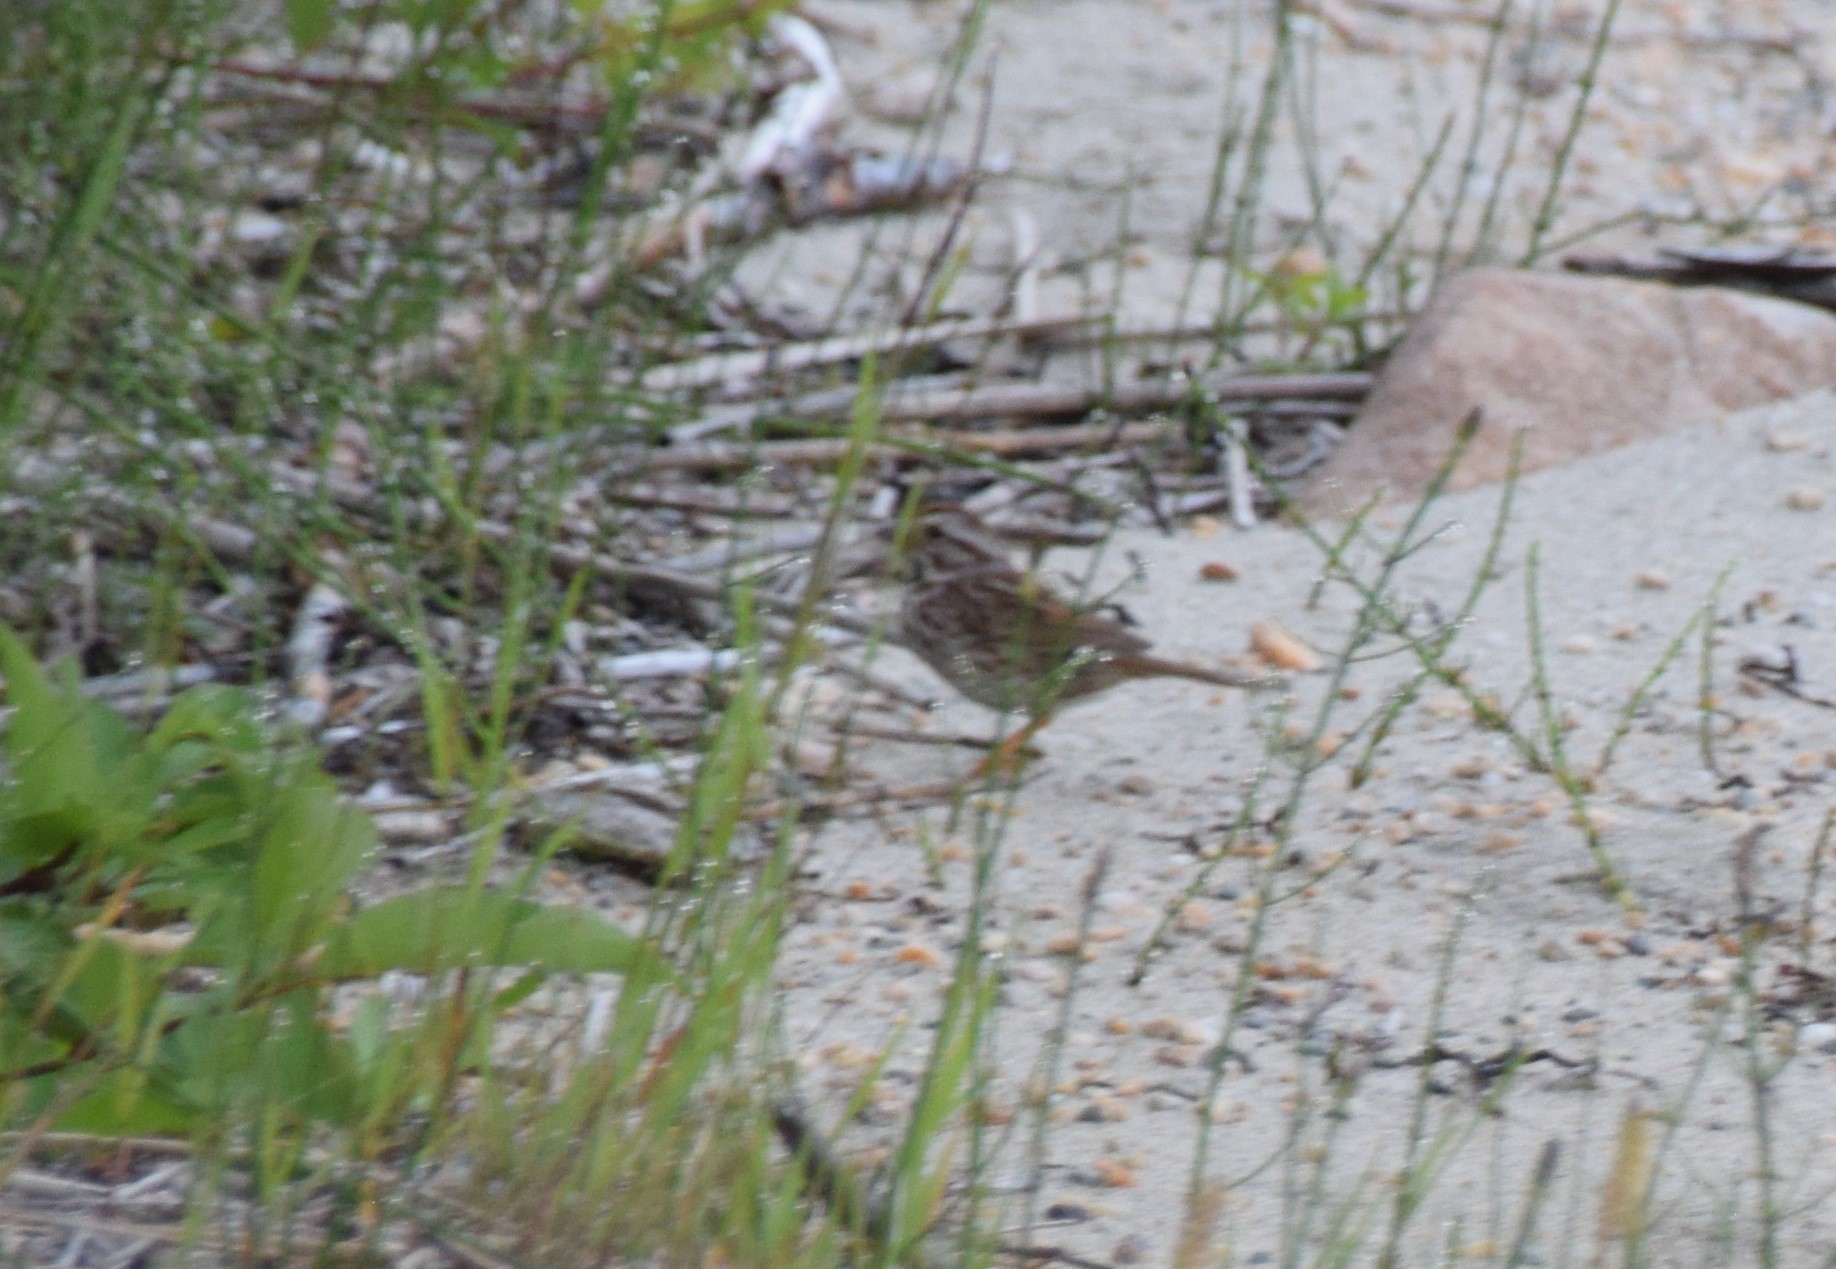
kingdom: Animalia
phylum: Chordata
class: Aves
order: Passeriformes
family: Passerellidae
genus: Melospiza
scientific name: Melospiza melodia
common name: Song sparrow
